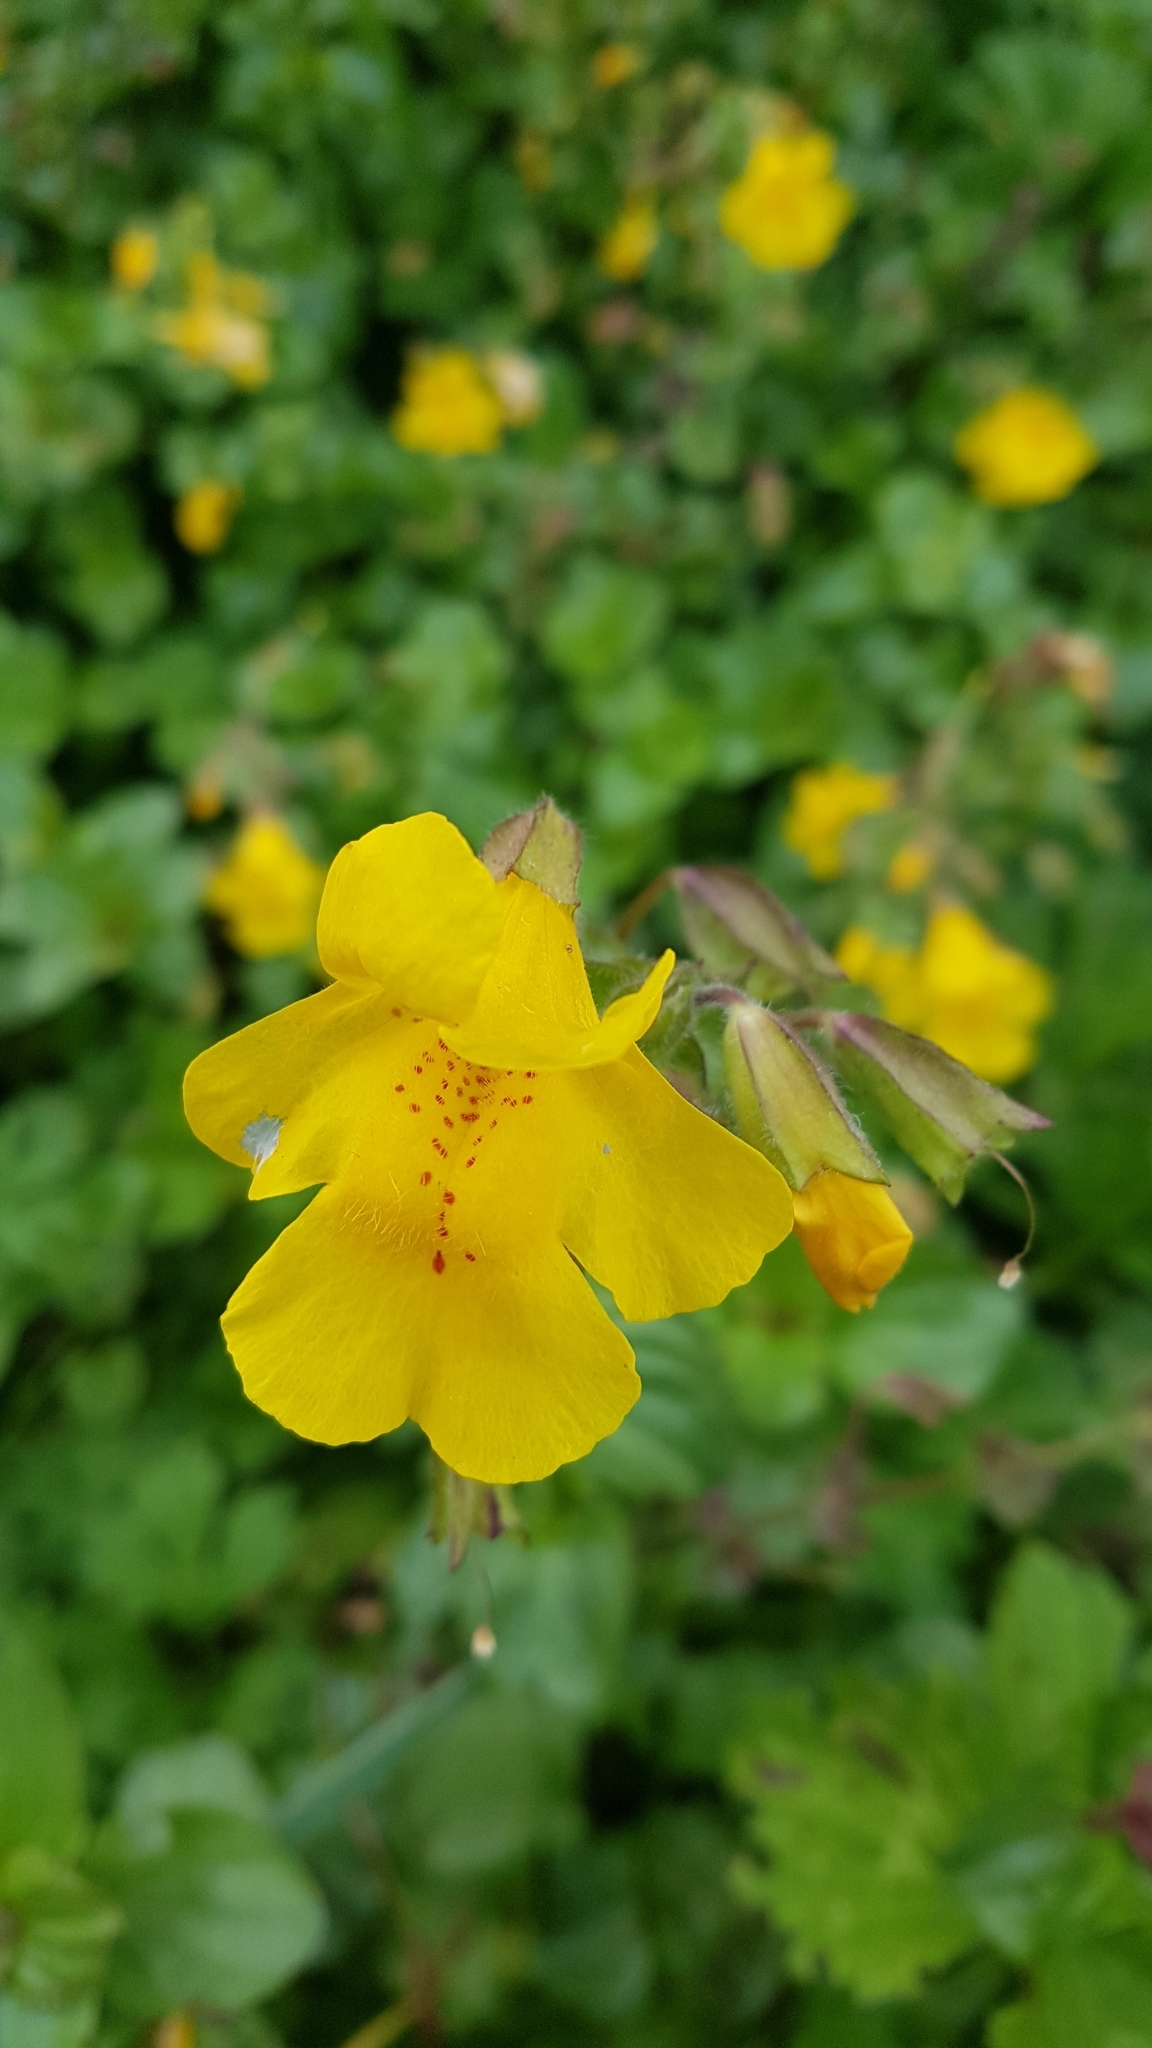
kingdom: Plantae
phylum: Tracheophyta
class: Magnoliopsida
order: Lamiales
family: Phrymaceae
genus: Erythranthe
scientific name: Erythranthe guttata
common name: Monkeyflower
